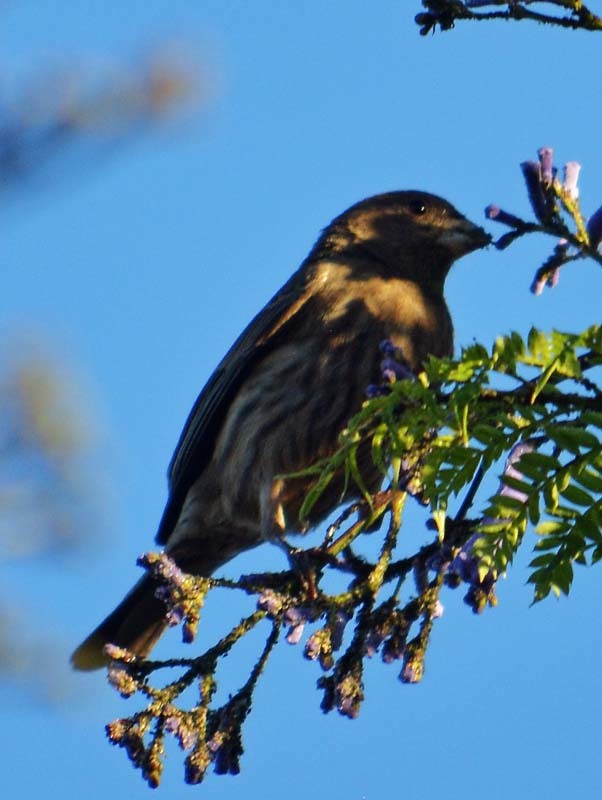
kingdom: Animalia
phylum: Chordata
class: Aves
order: Passeriformes
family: Fringillidae
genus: Haemorhous
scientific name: Haemorhous mexicanus
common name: House finch
